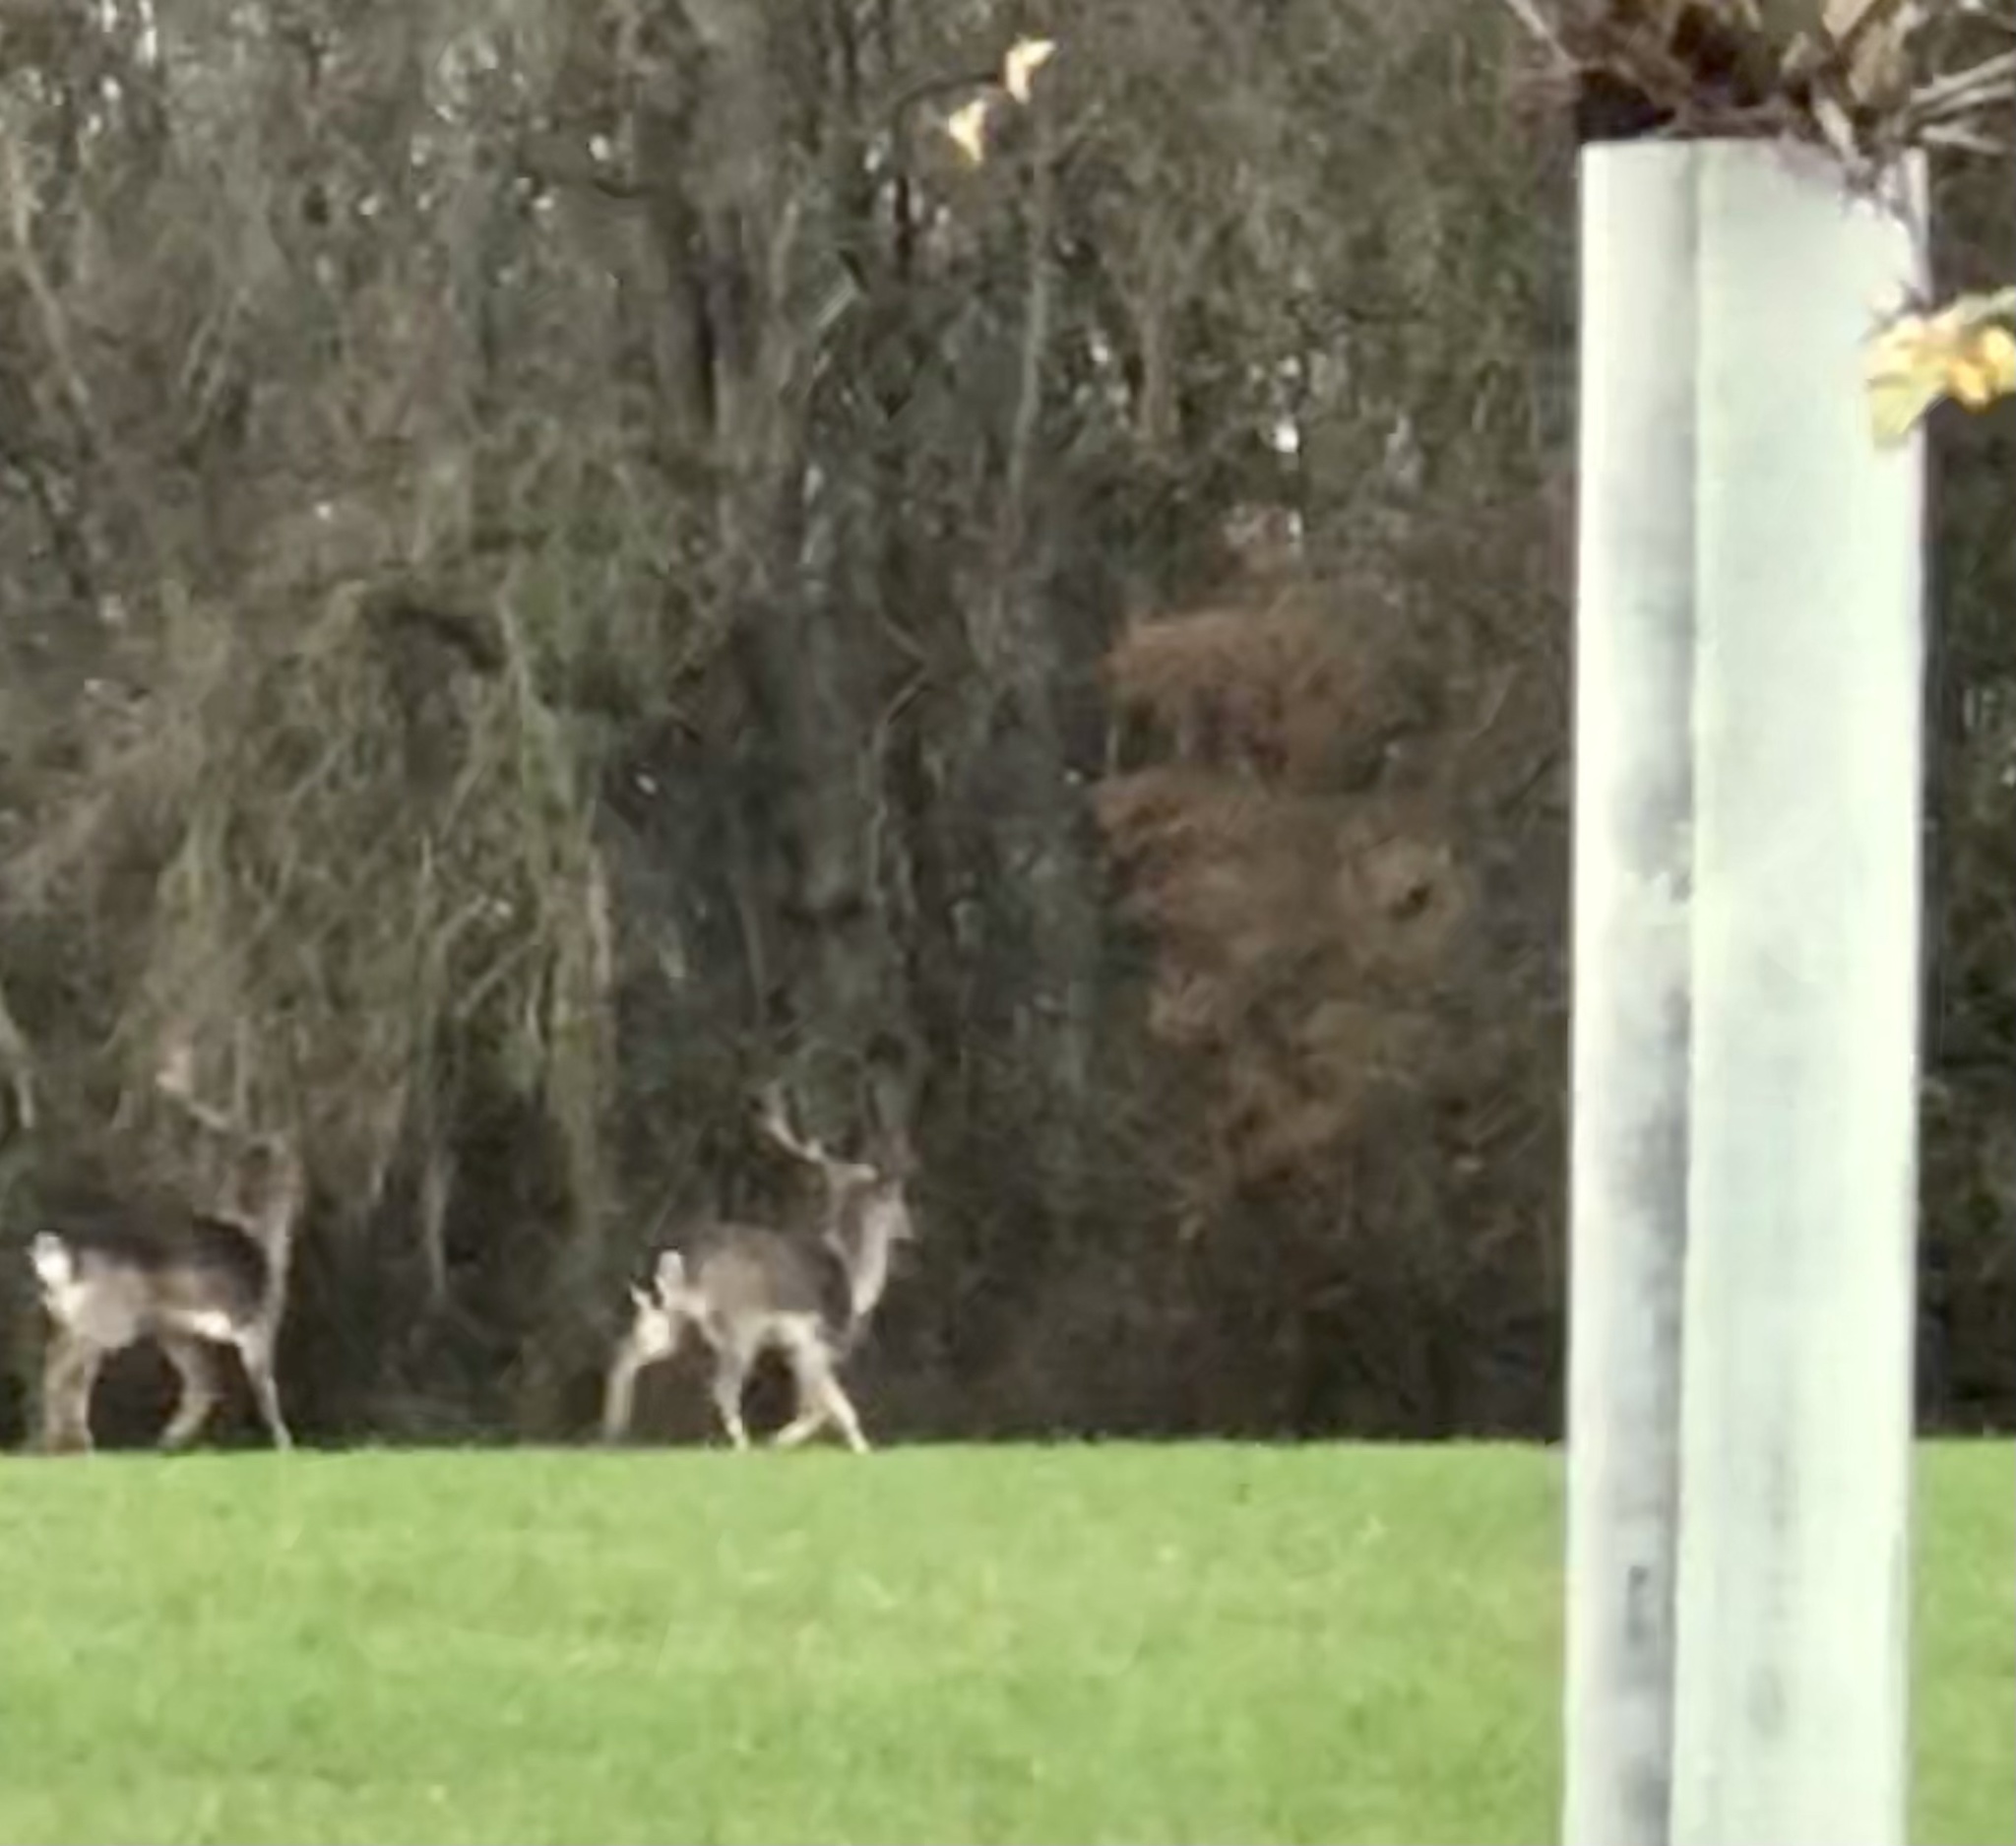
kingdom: Animalia
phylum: Chordata
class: Mammalia
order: Artiodactyla
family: Cervidae
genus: Dama
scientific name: Dama dama
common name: Fallow deer
